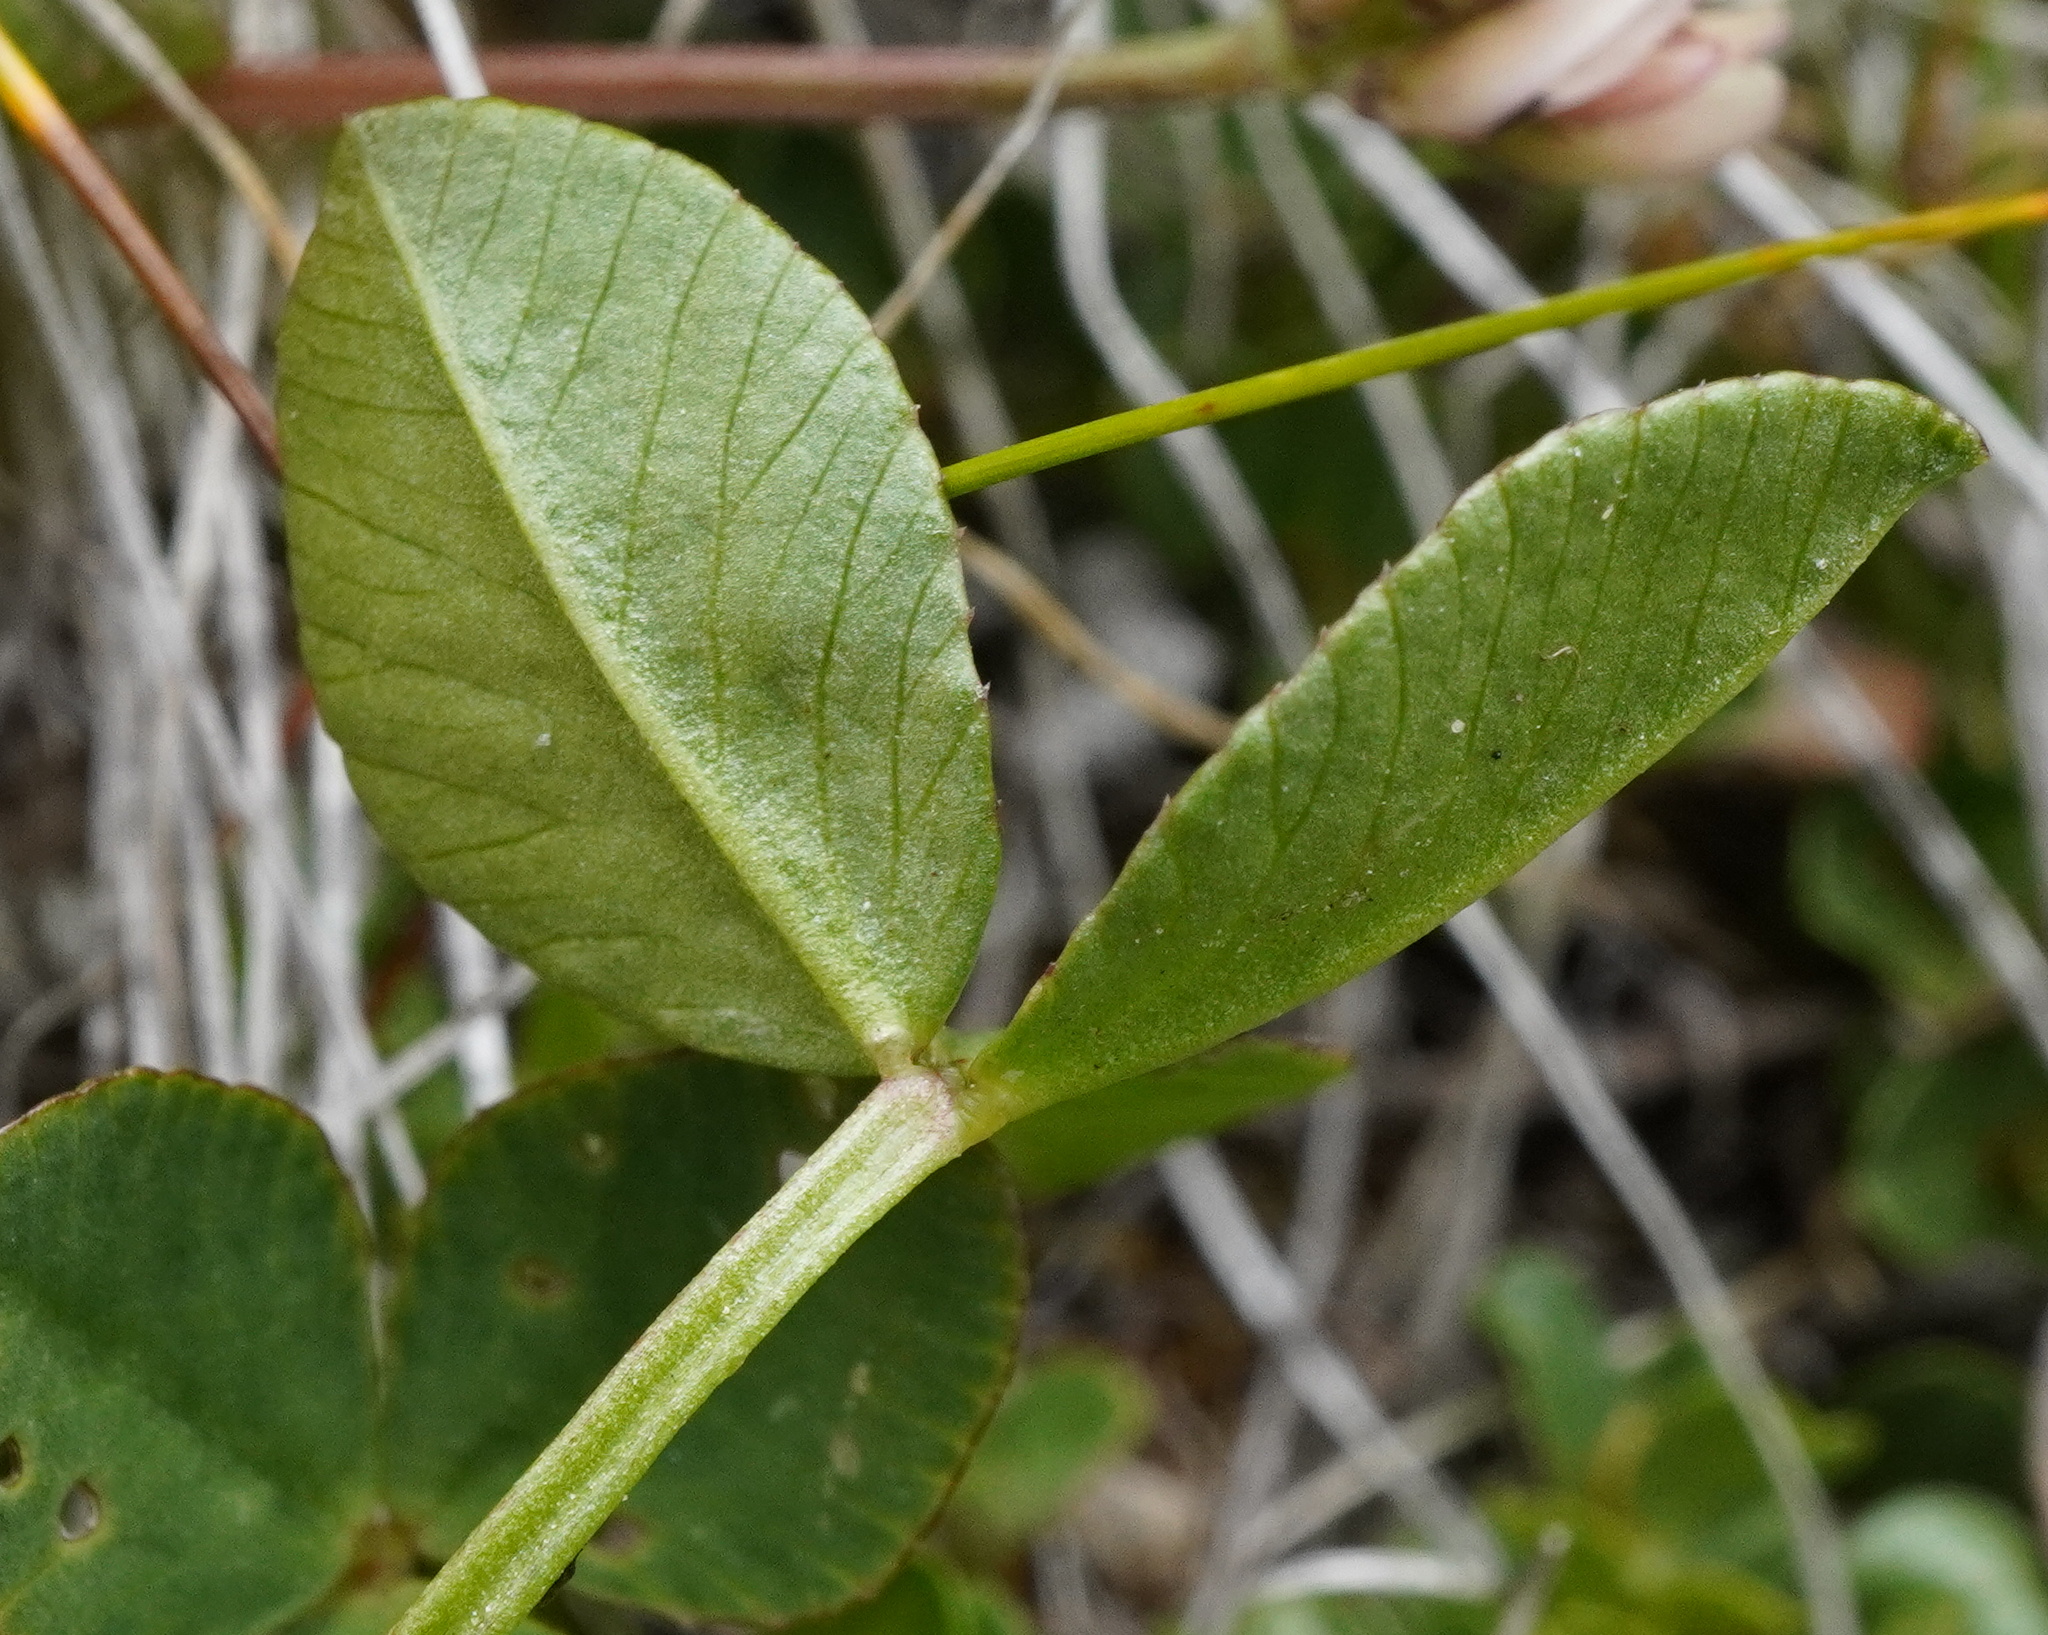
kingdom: Plantae
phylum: Tracheophyta
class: Magnoliopsida
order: Fabales
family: Fabaceae
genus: Trifolium
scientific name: Trifolium pallescens
